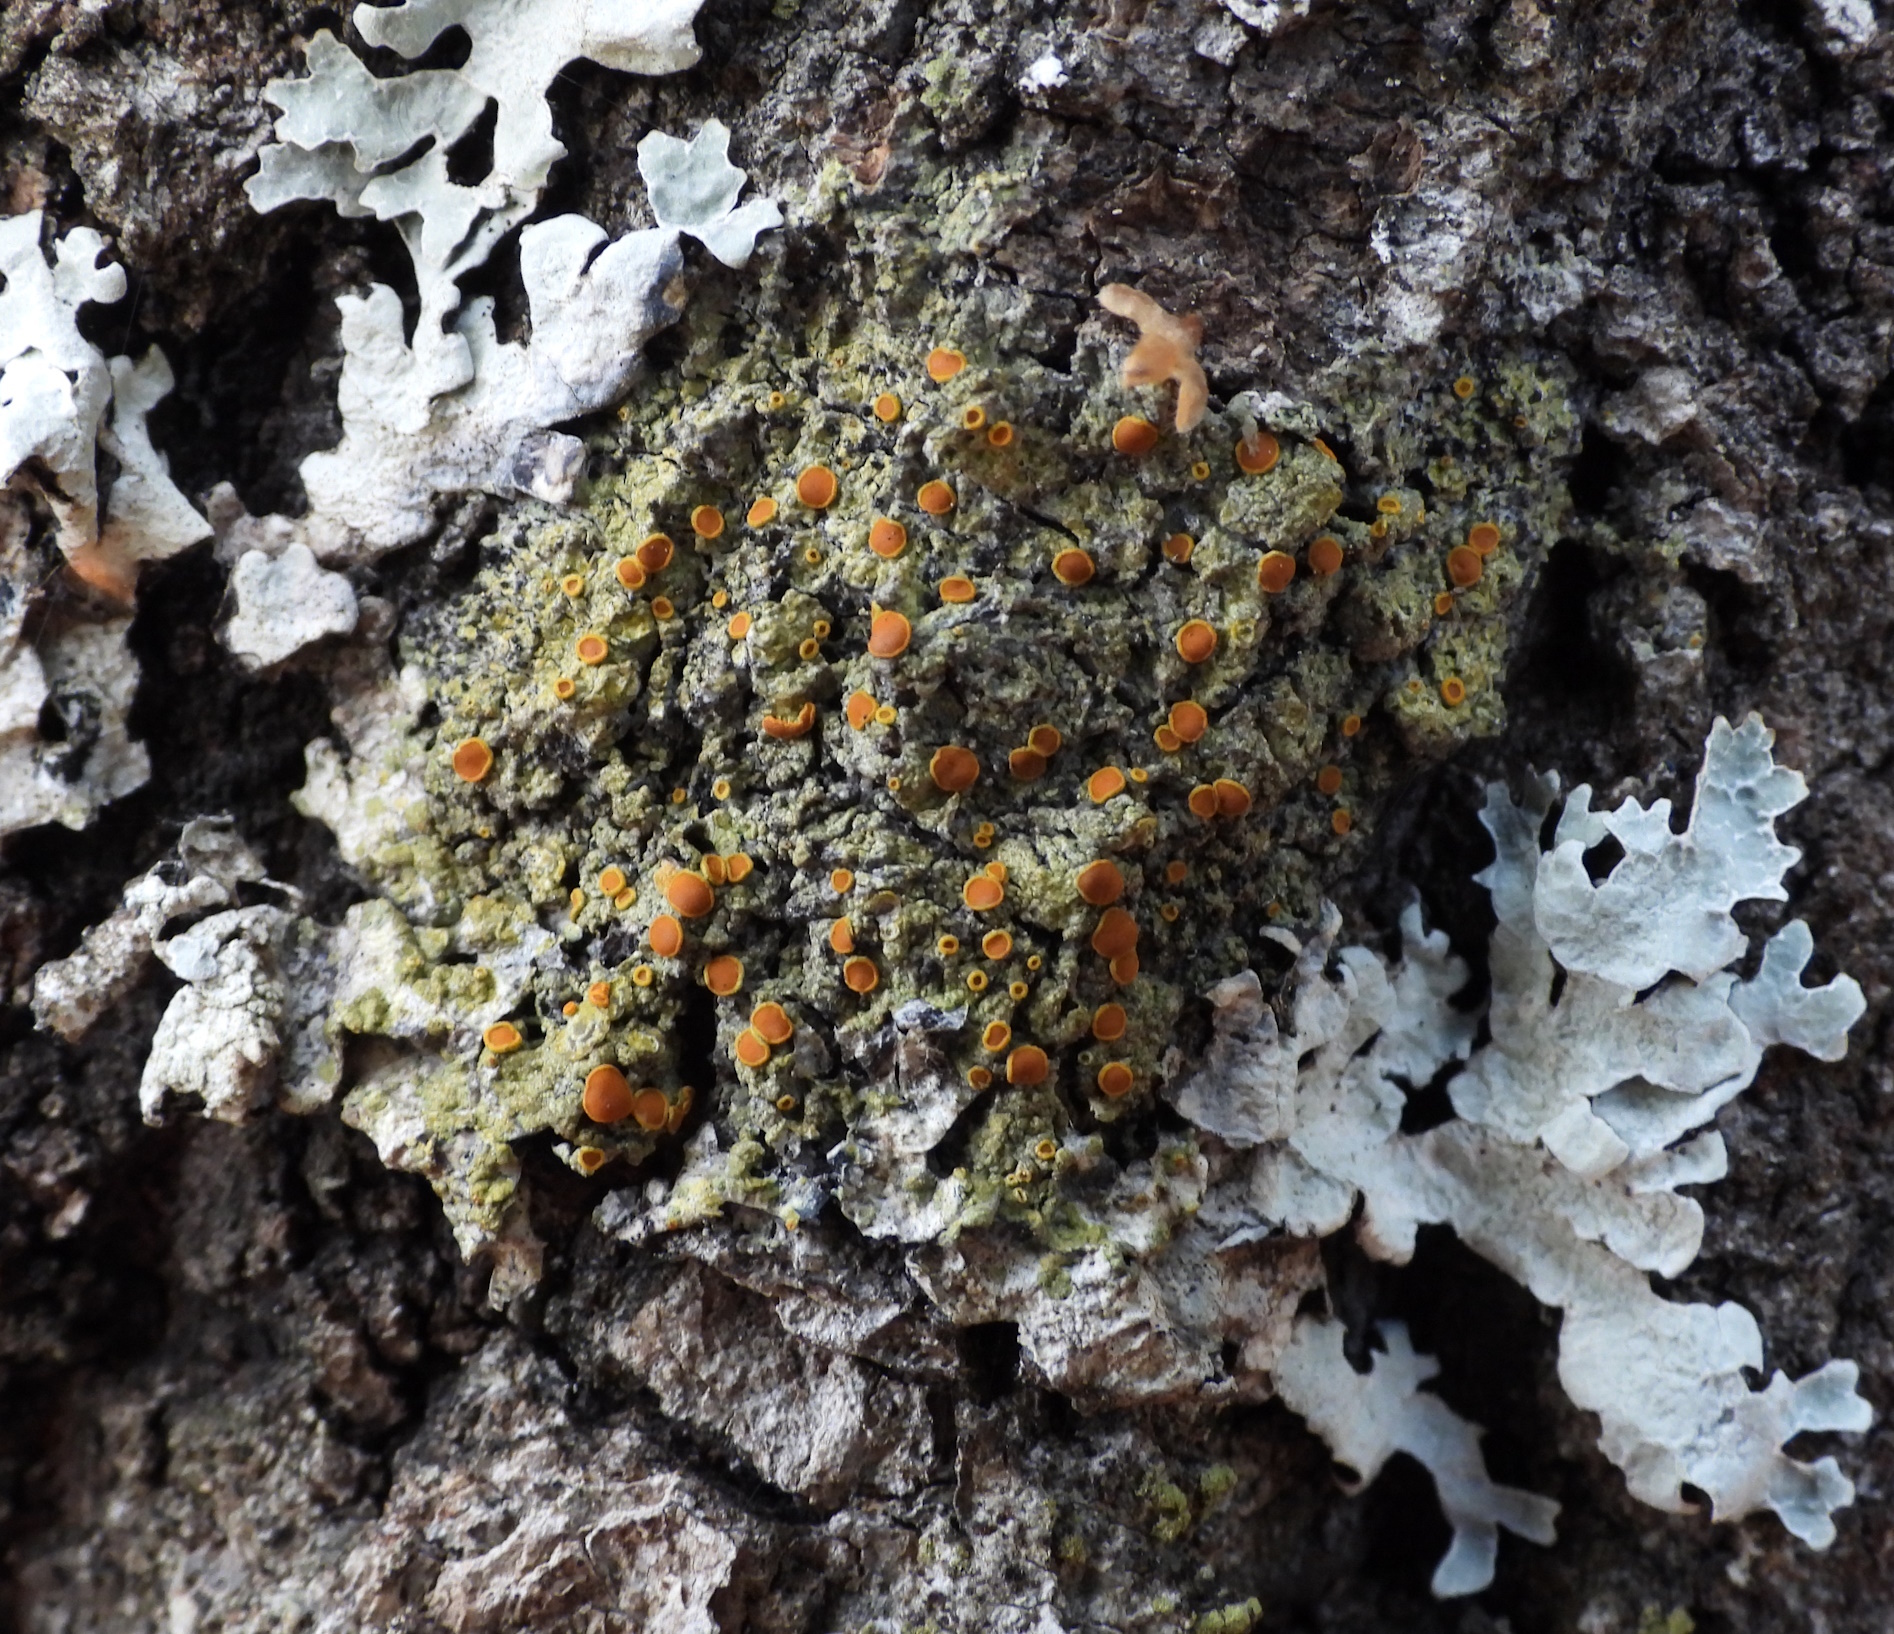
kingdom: Fungi
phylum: Ascomycota
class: Lecanoromycetes
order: Teloschistales
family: Teloschistaceae
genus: Opeltia
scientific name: Opeltia flavorubescens
